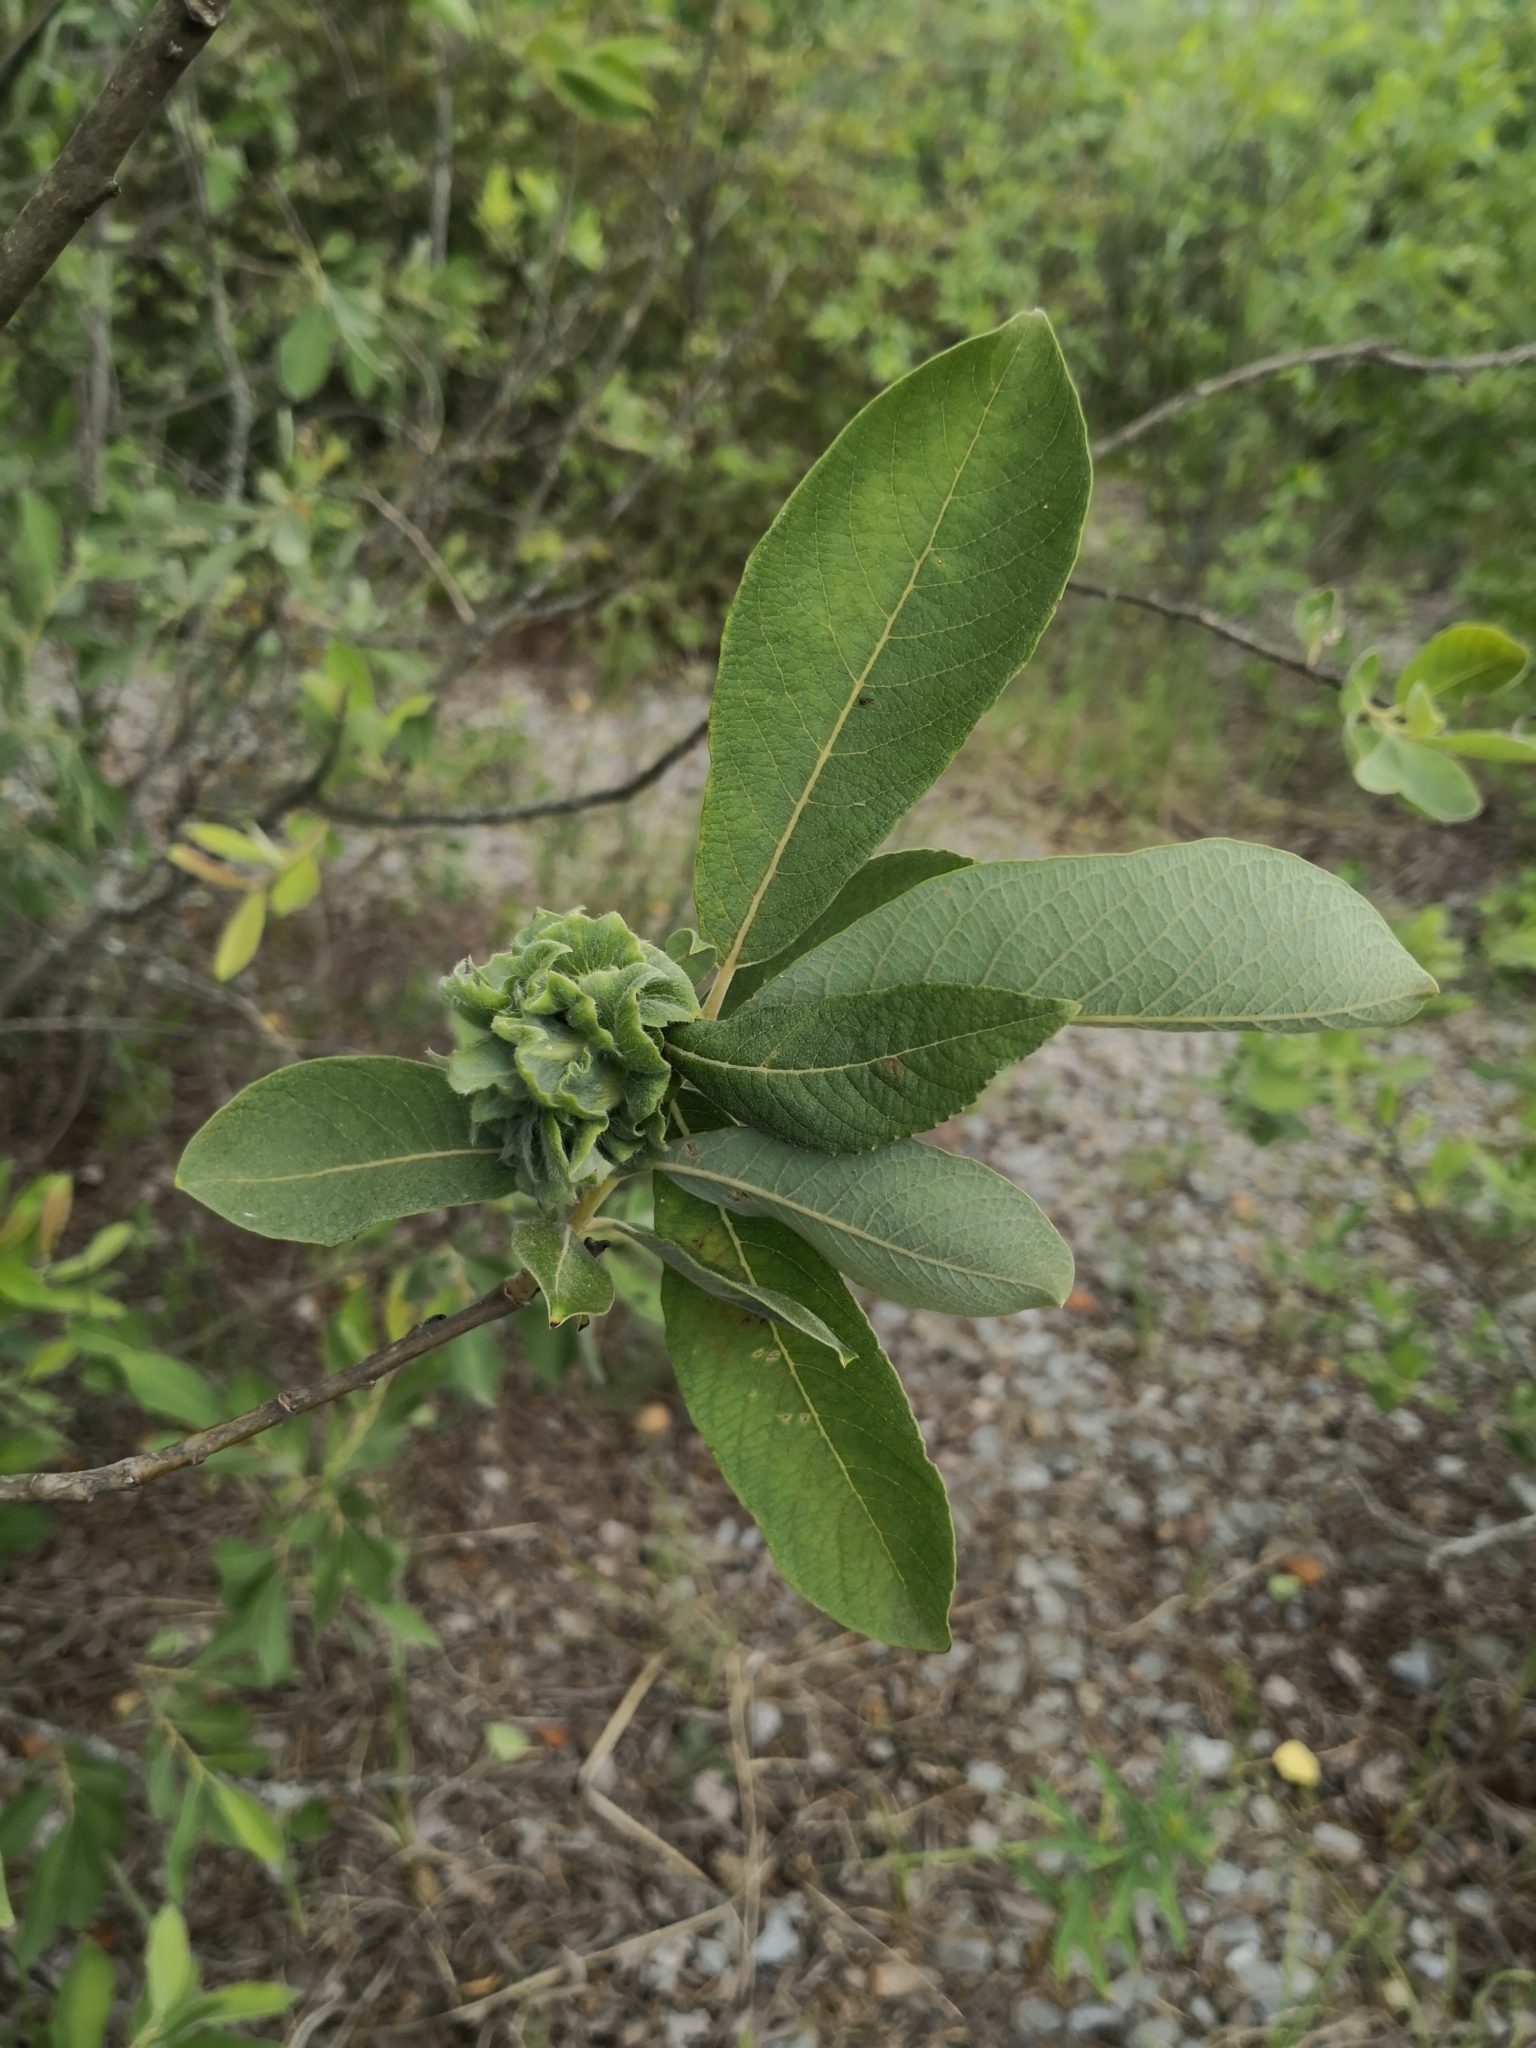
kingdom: Plantae
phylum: Tracheophyta
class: Magnoliopsida
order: Malpighiales
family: Salicaceae
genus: Salix
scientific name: Salix cinerea
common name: Common sallow
